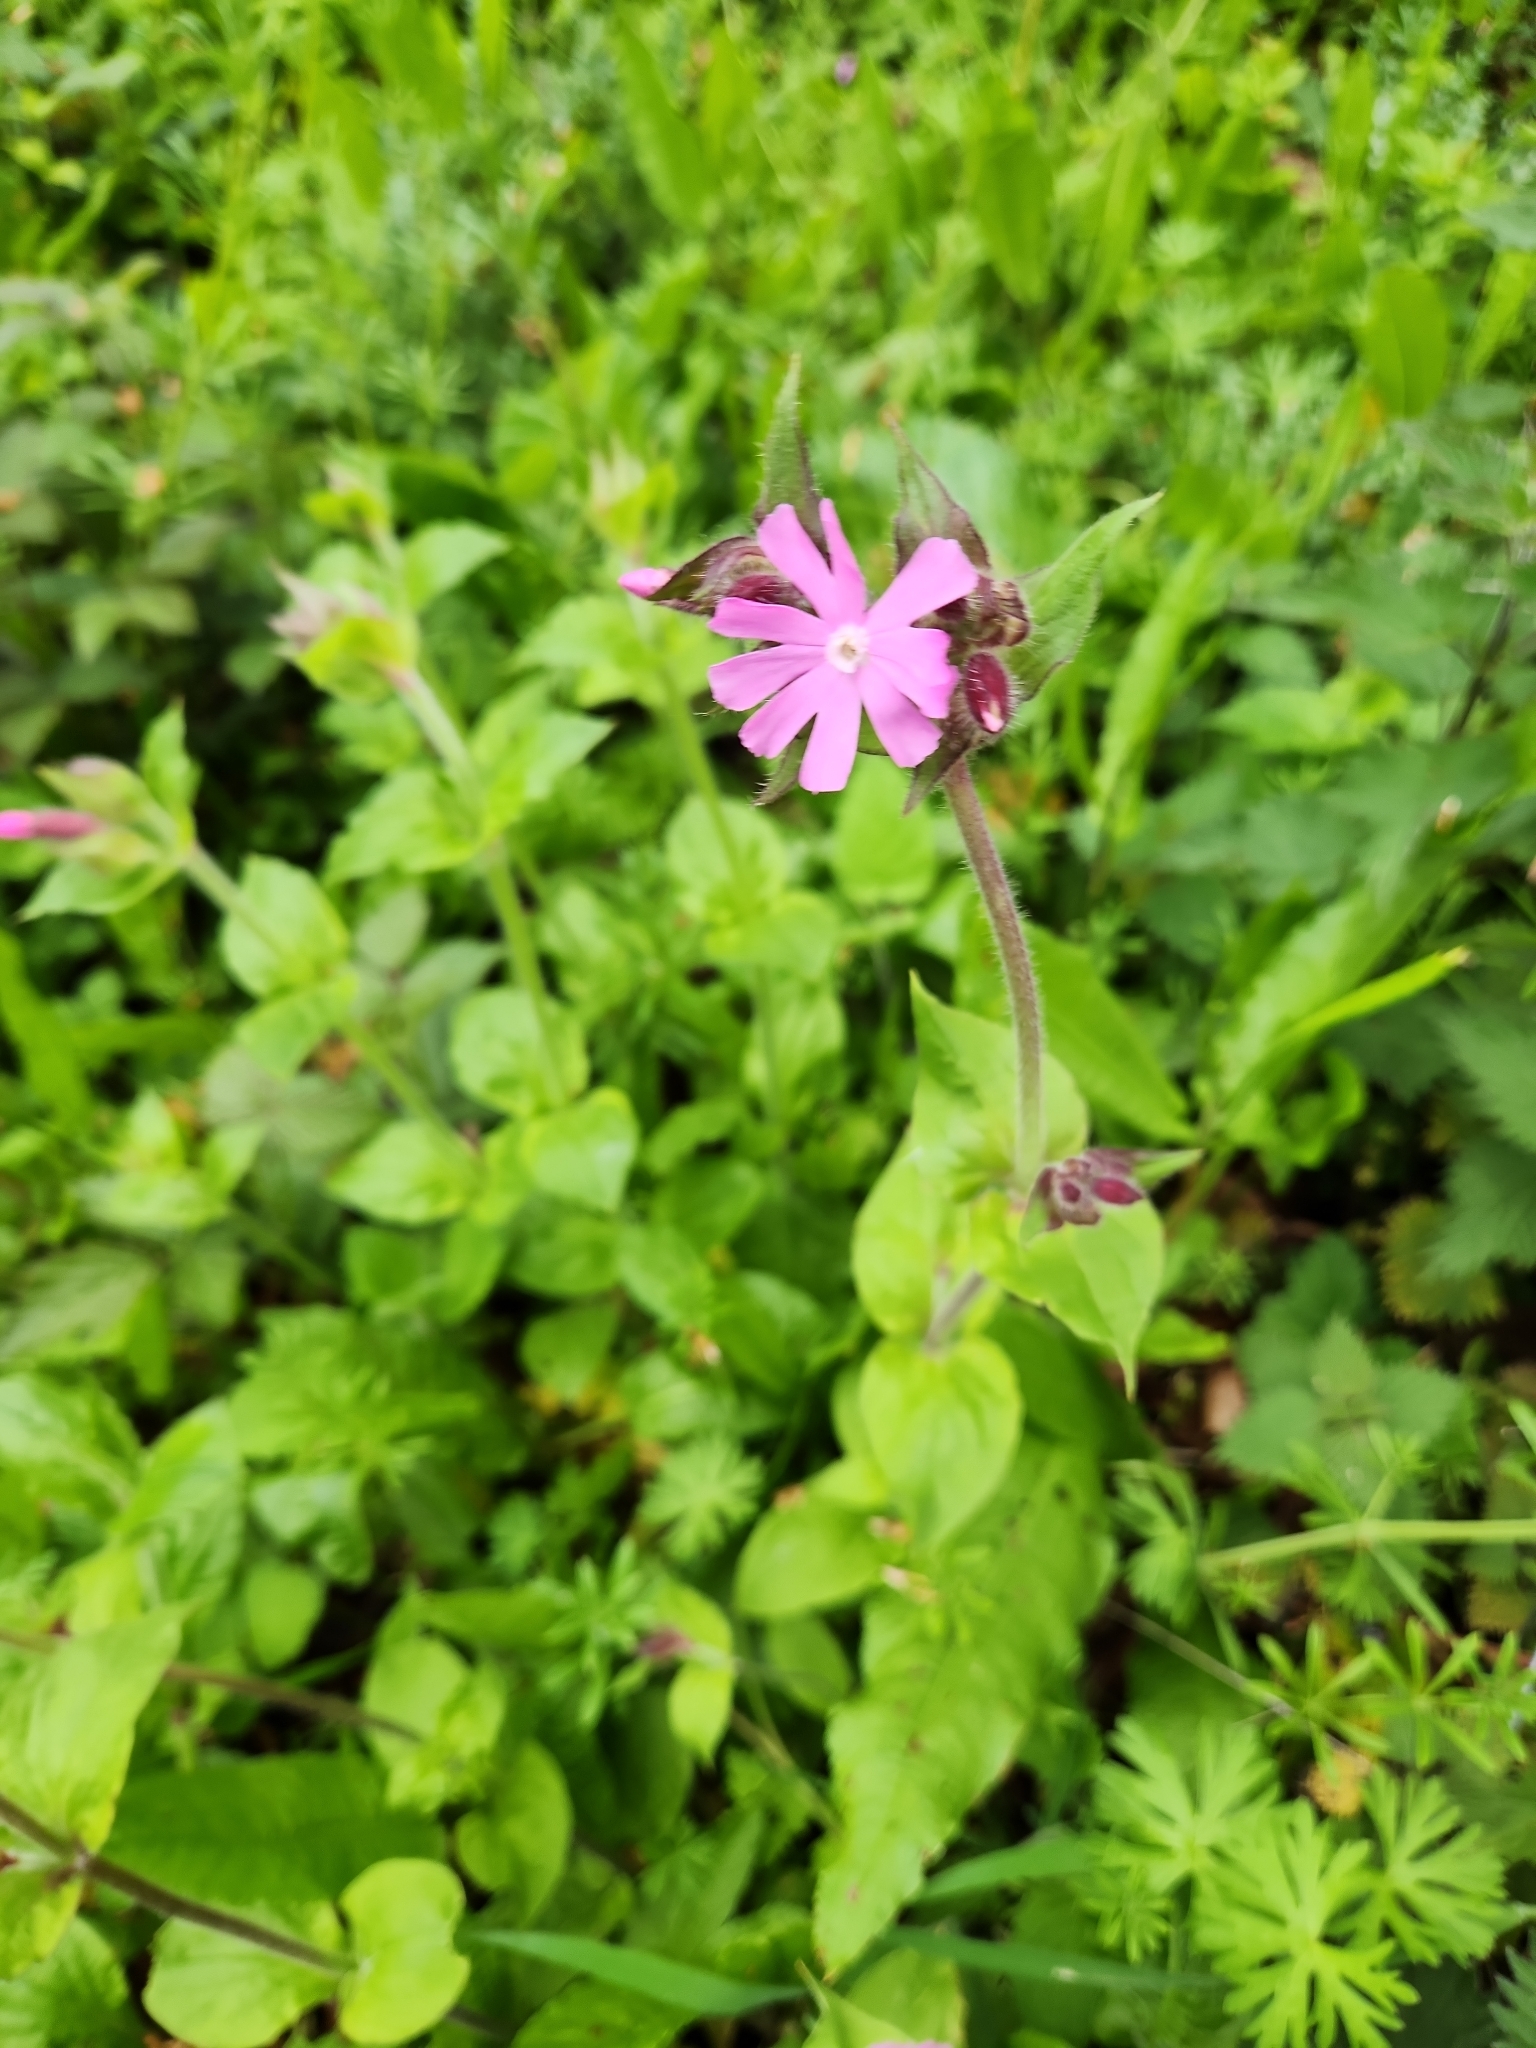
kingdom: Plantae
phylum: Tracheophyta
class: Magnoliopsida
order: Caryophyllales
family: Caryophyllaceae
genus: Silene
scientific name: Silene dioica
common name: Red campion
